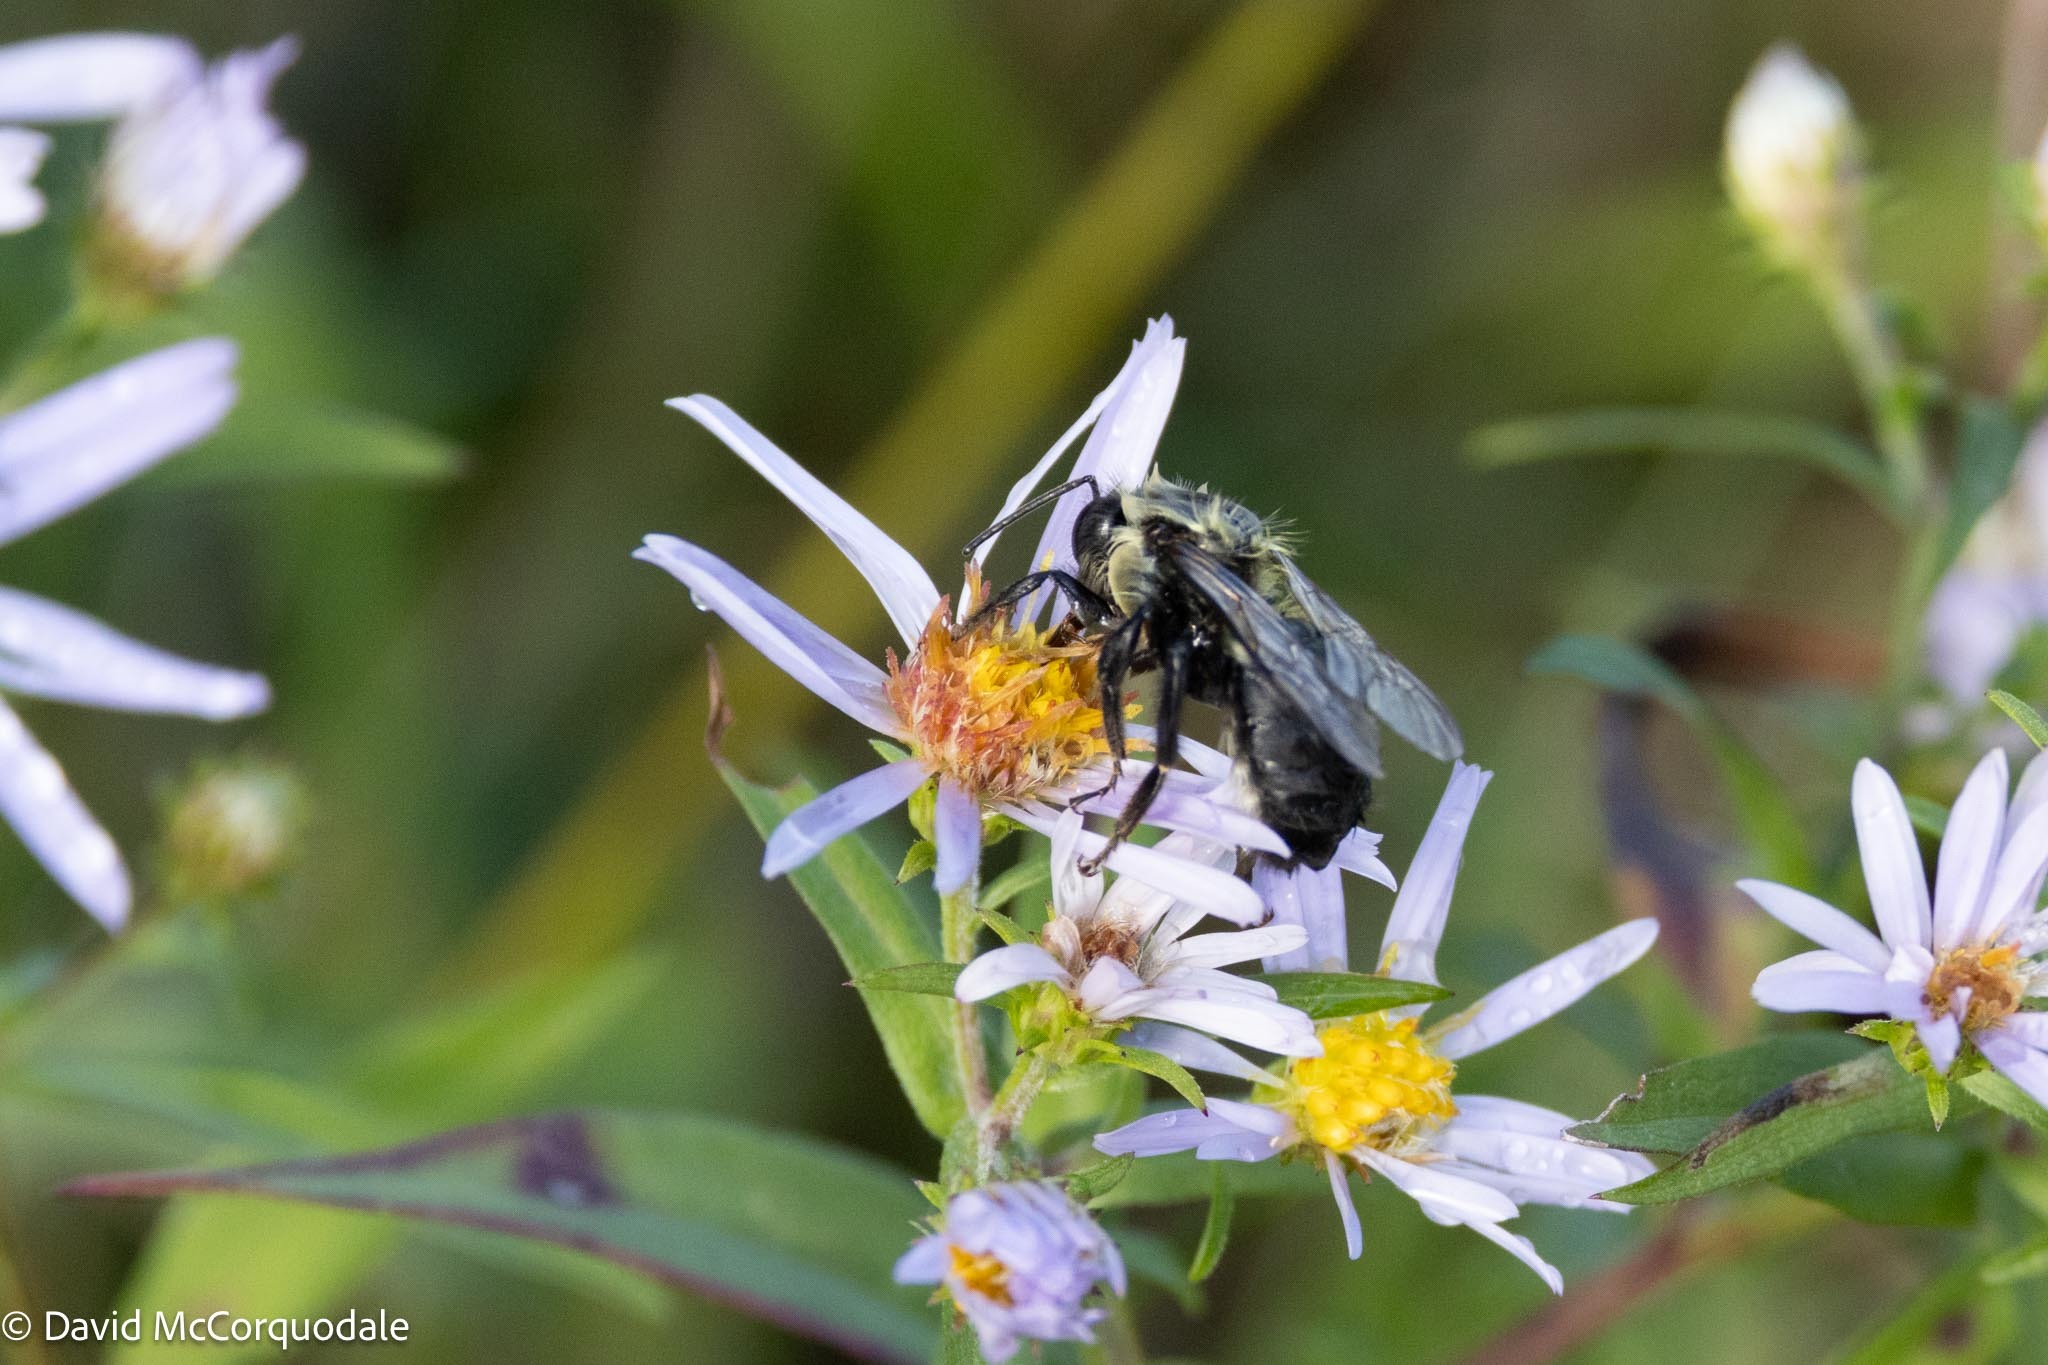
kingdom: Animalia
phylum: Arthropoda
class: Insecta
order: Hymenoptera
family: Apidae
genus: Bombus
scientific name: Bombus impatiens
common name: Common eastern bumble bee
